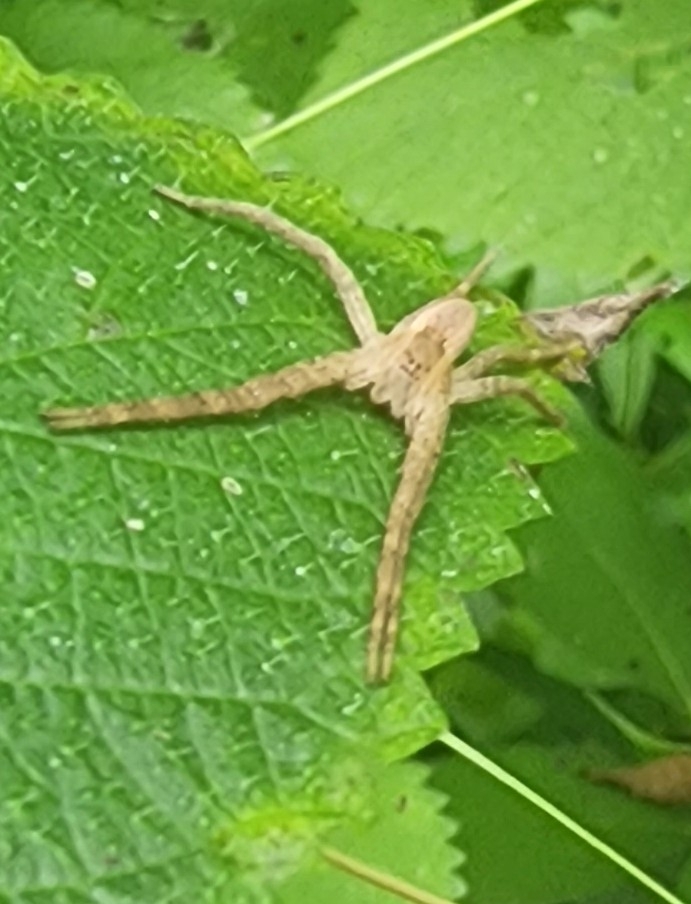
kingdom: Animalia
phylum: Arthropoda
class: Arachnida
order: Araneae
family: Pisauridae
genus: Pisaurina
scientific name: Pisaurina mira
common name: American nursery web spider
